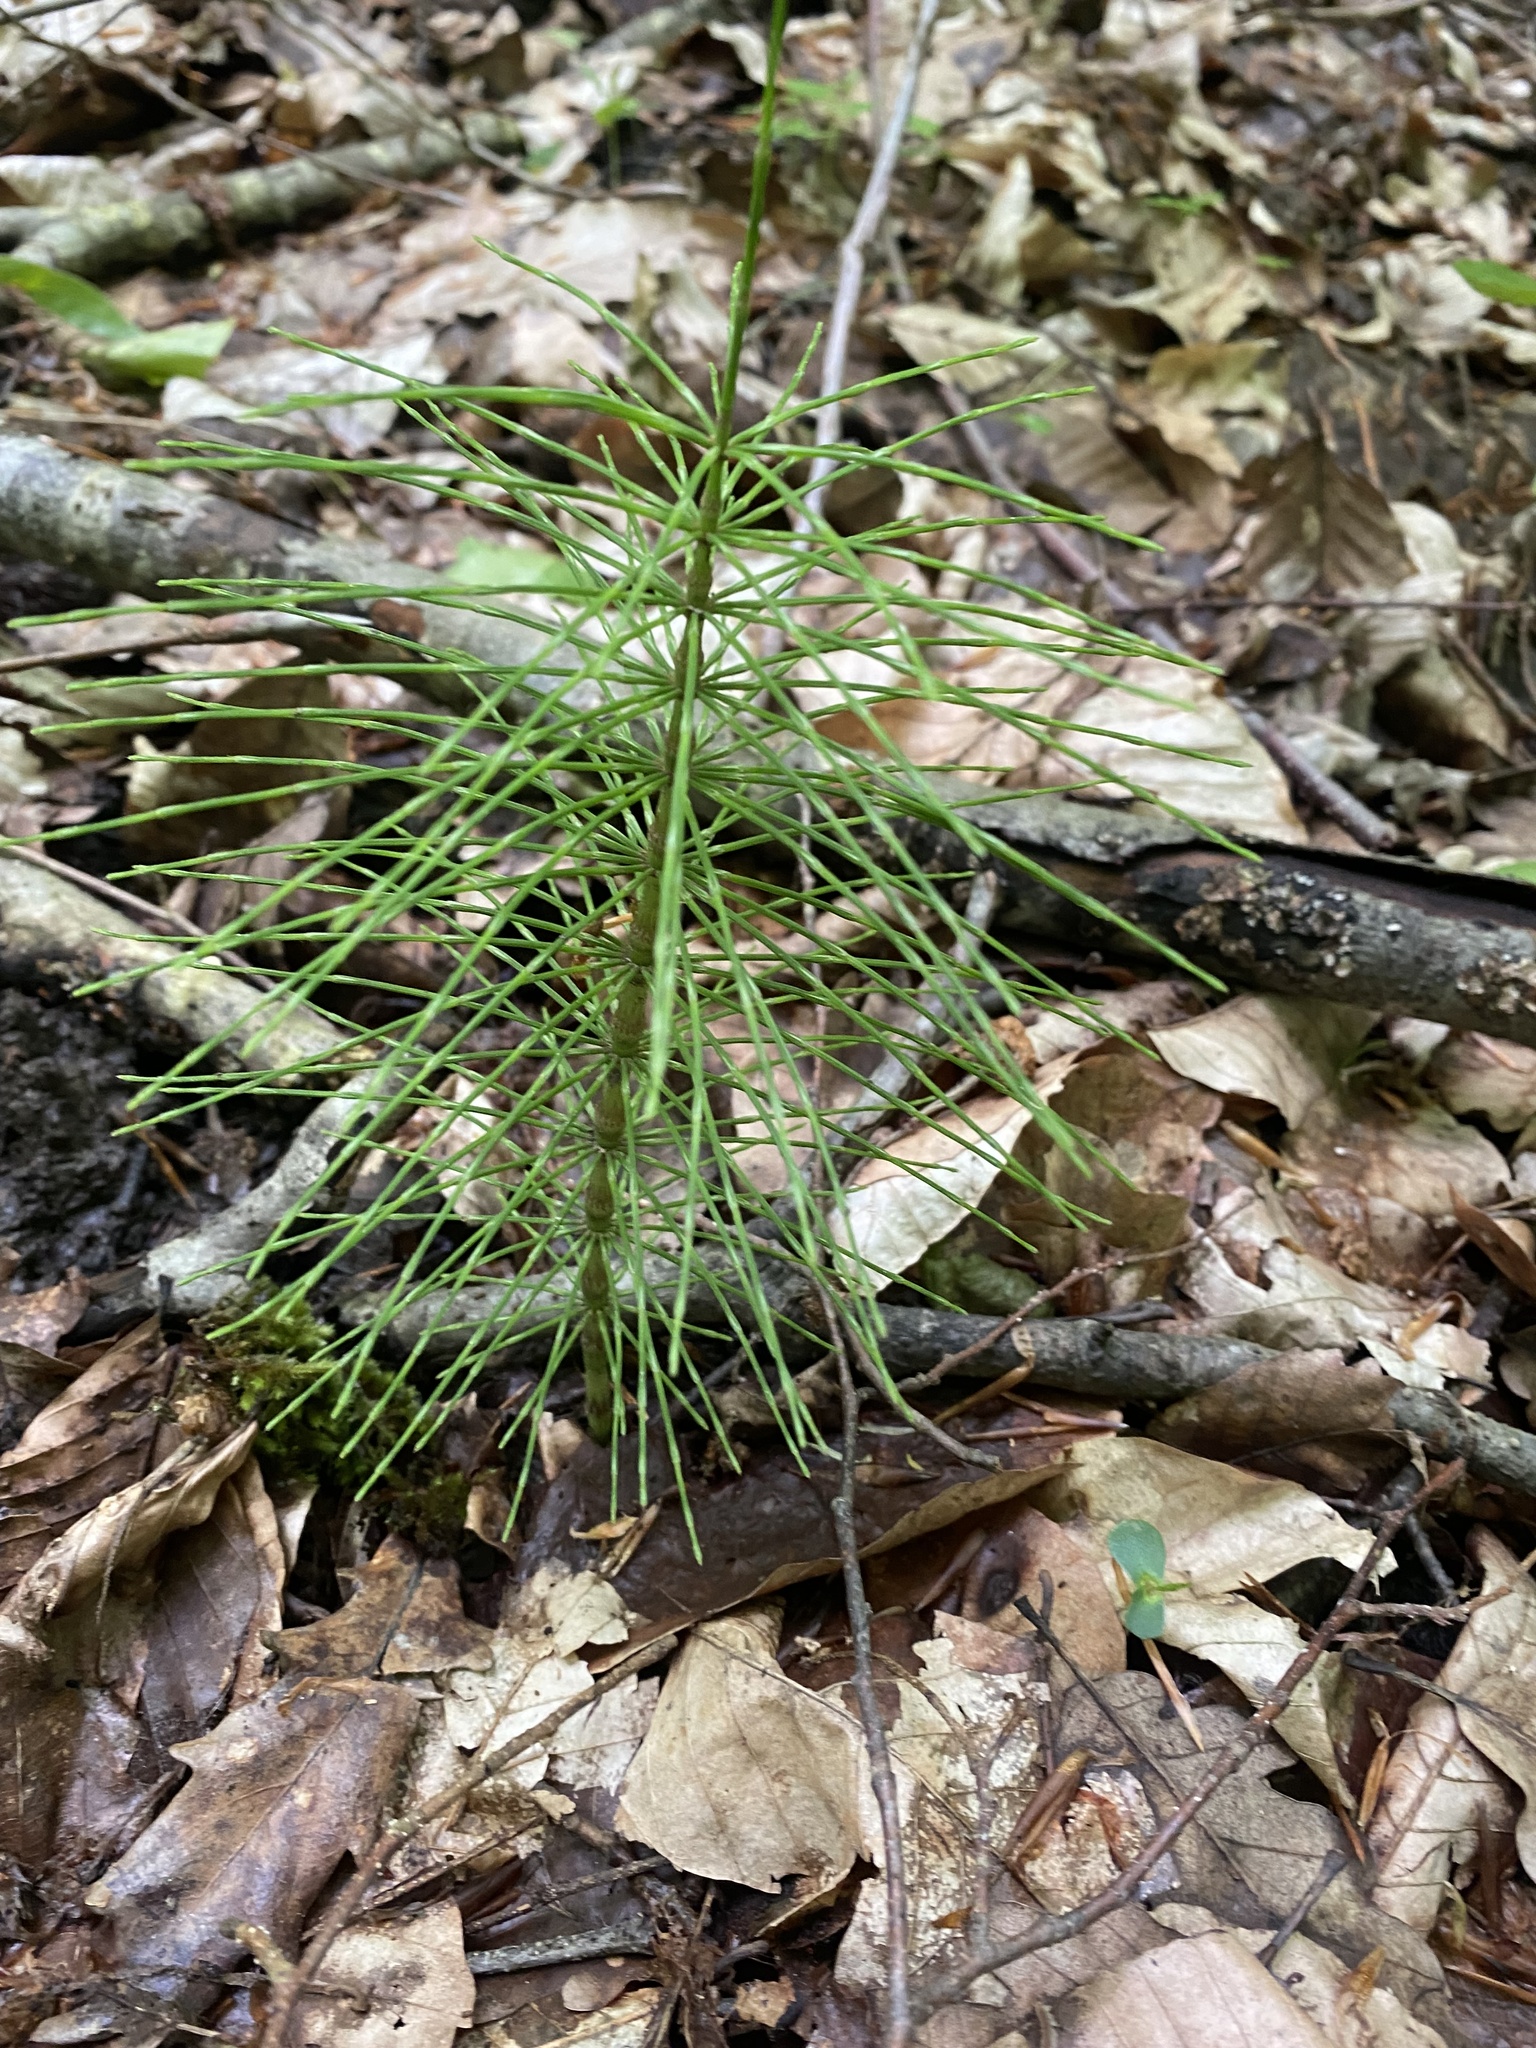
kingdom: Plantae
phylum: Tracheophyta
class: Polypodiopsida
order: Equisetales
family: Equisetaceae
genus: Equisetum
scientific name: Equisetum telmateia
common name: Great horsetail
